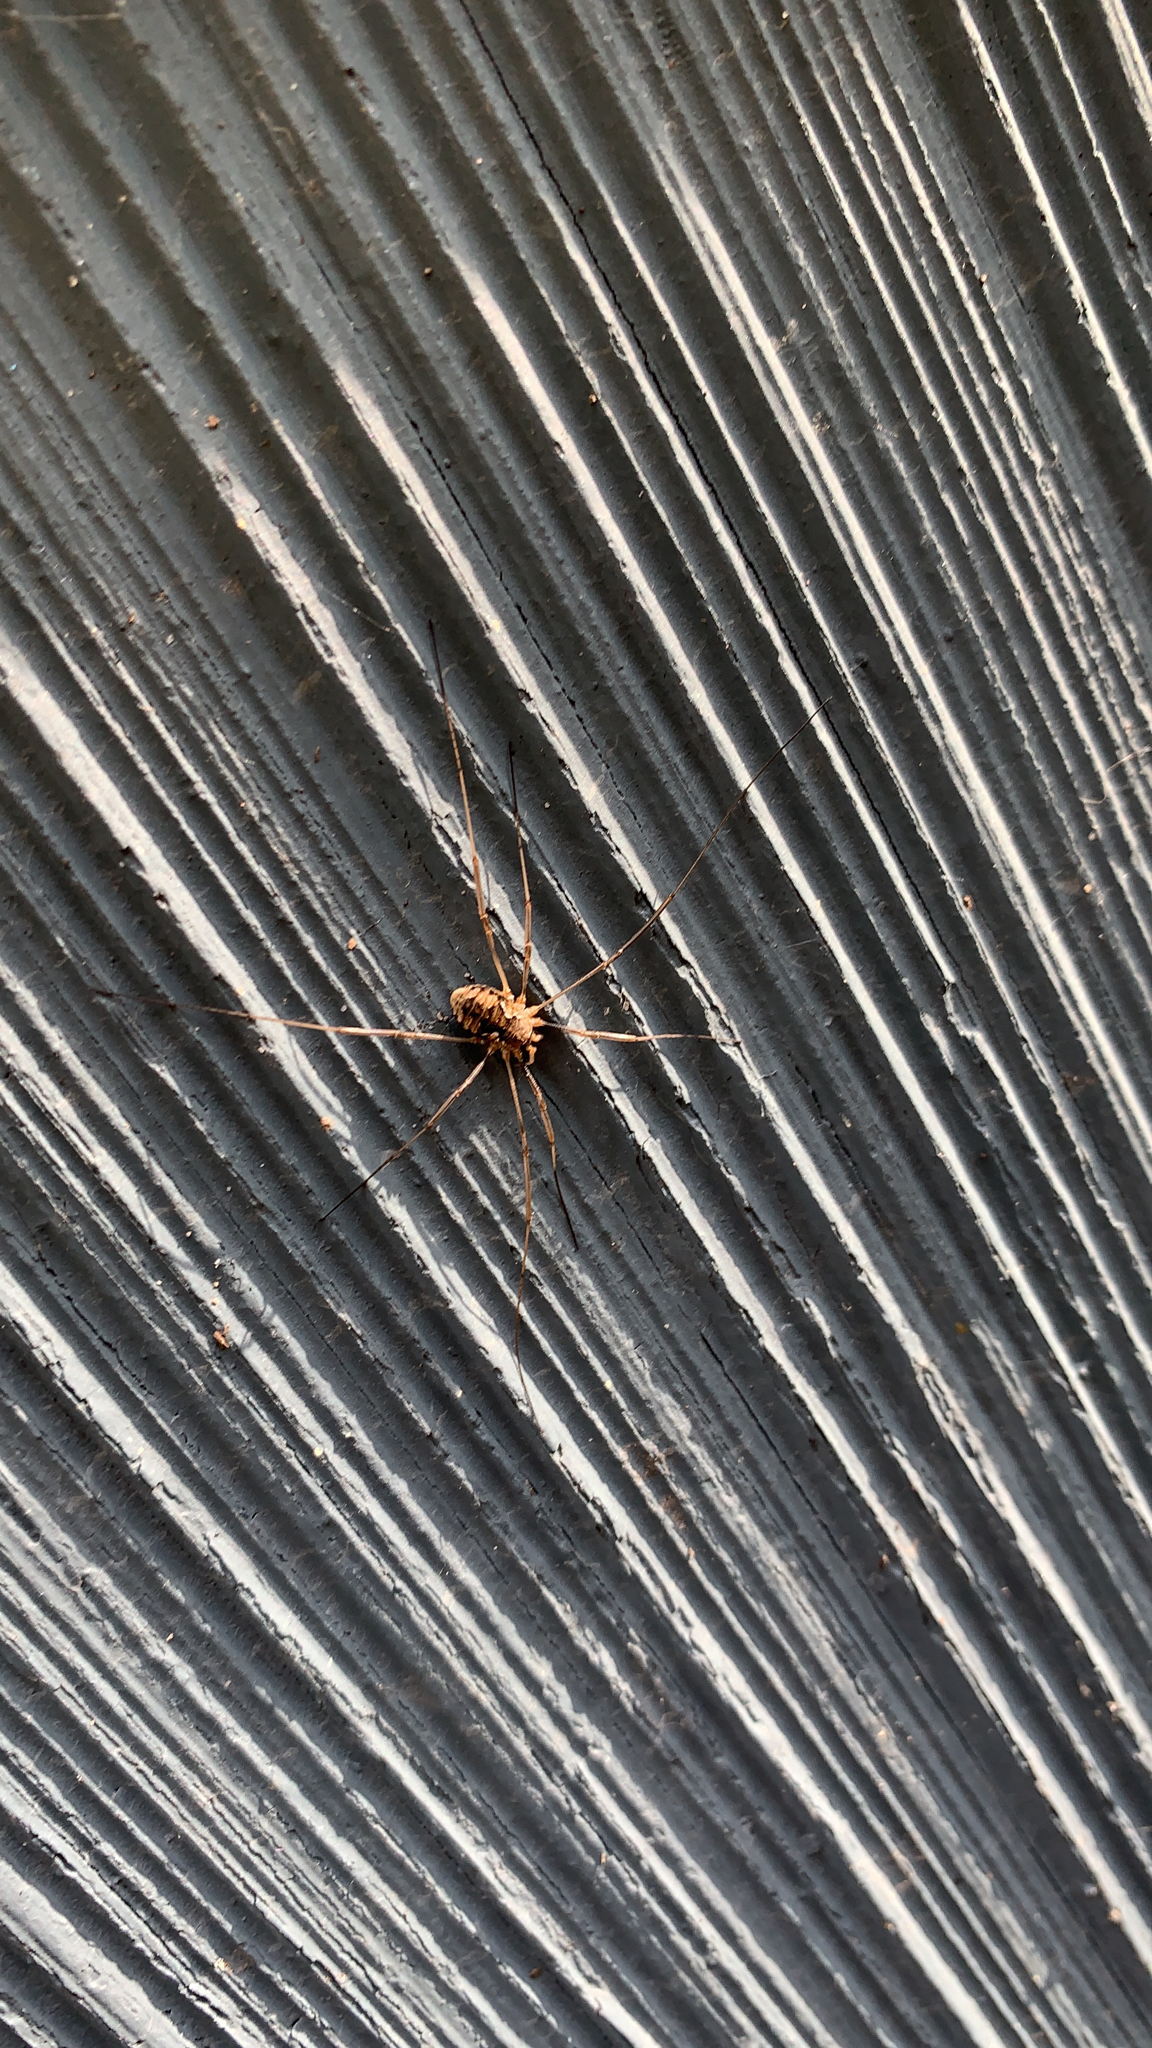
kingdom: Animalia
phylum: Arthropoda
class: Arachnida
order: Opiliones
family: Phalangiidae
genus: Phalangium
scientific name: Phalangium opilio
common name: Daddy longleg
